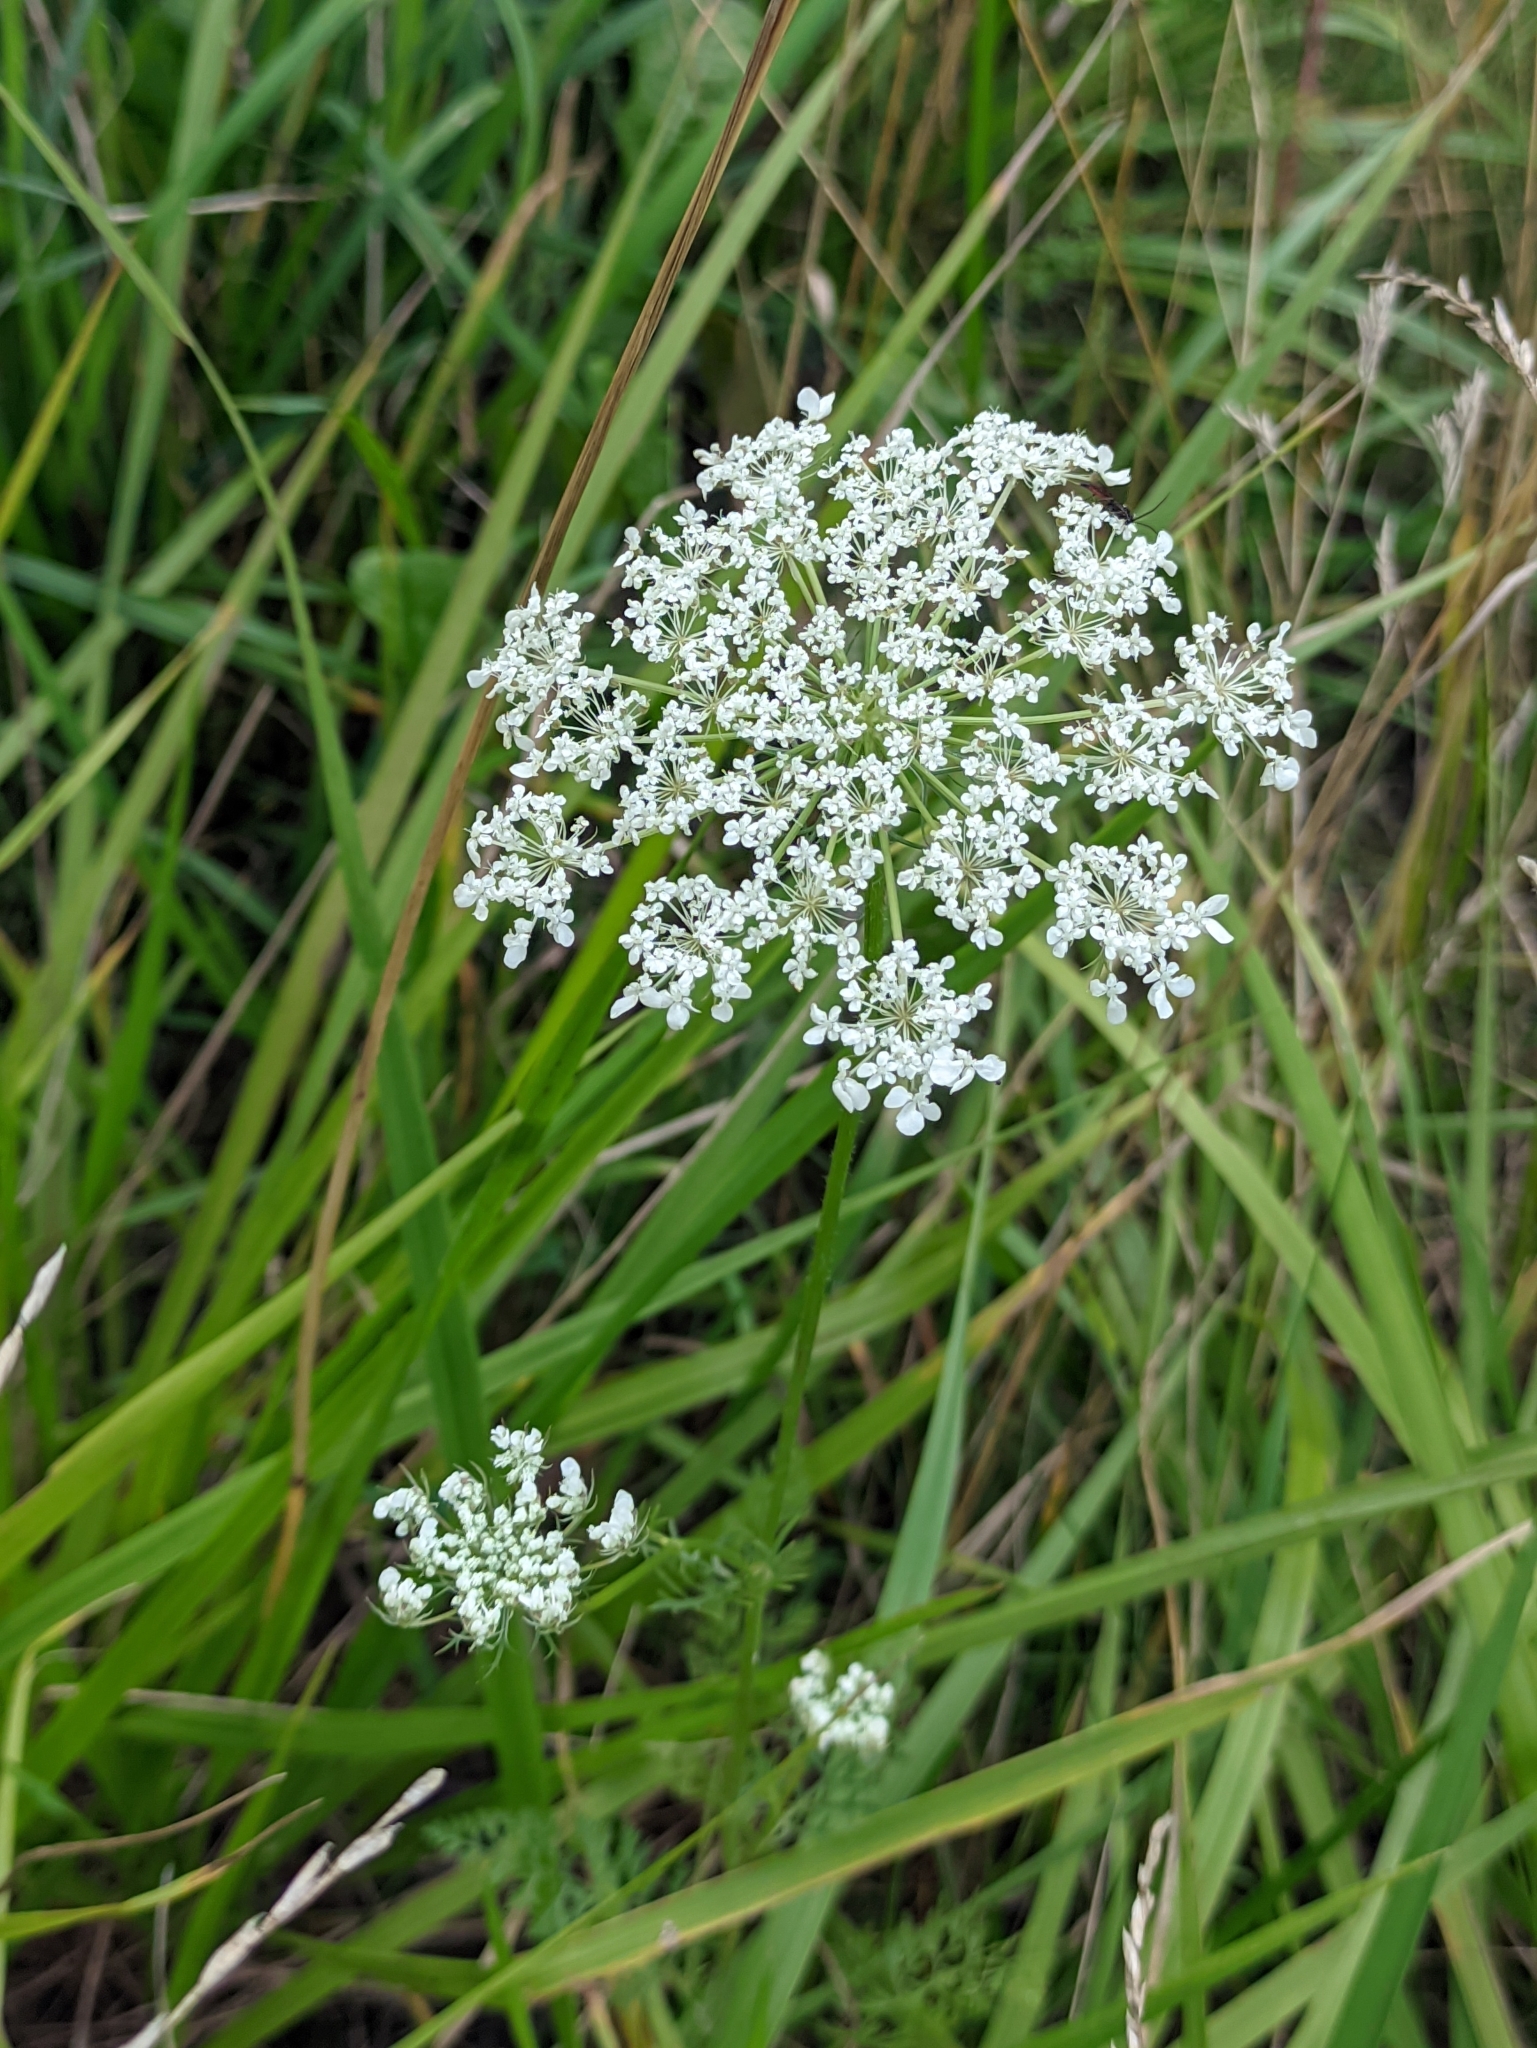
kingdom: Plantae
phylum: Tracheophyta
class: Magnoliopsida
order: Apiales
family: Apiaceae
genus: Daucus
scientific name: Daucus carota
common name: Wild carrot
